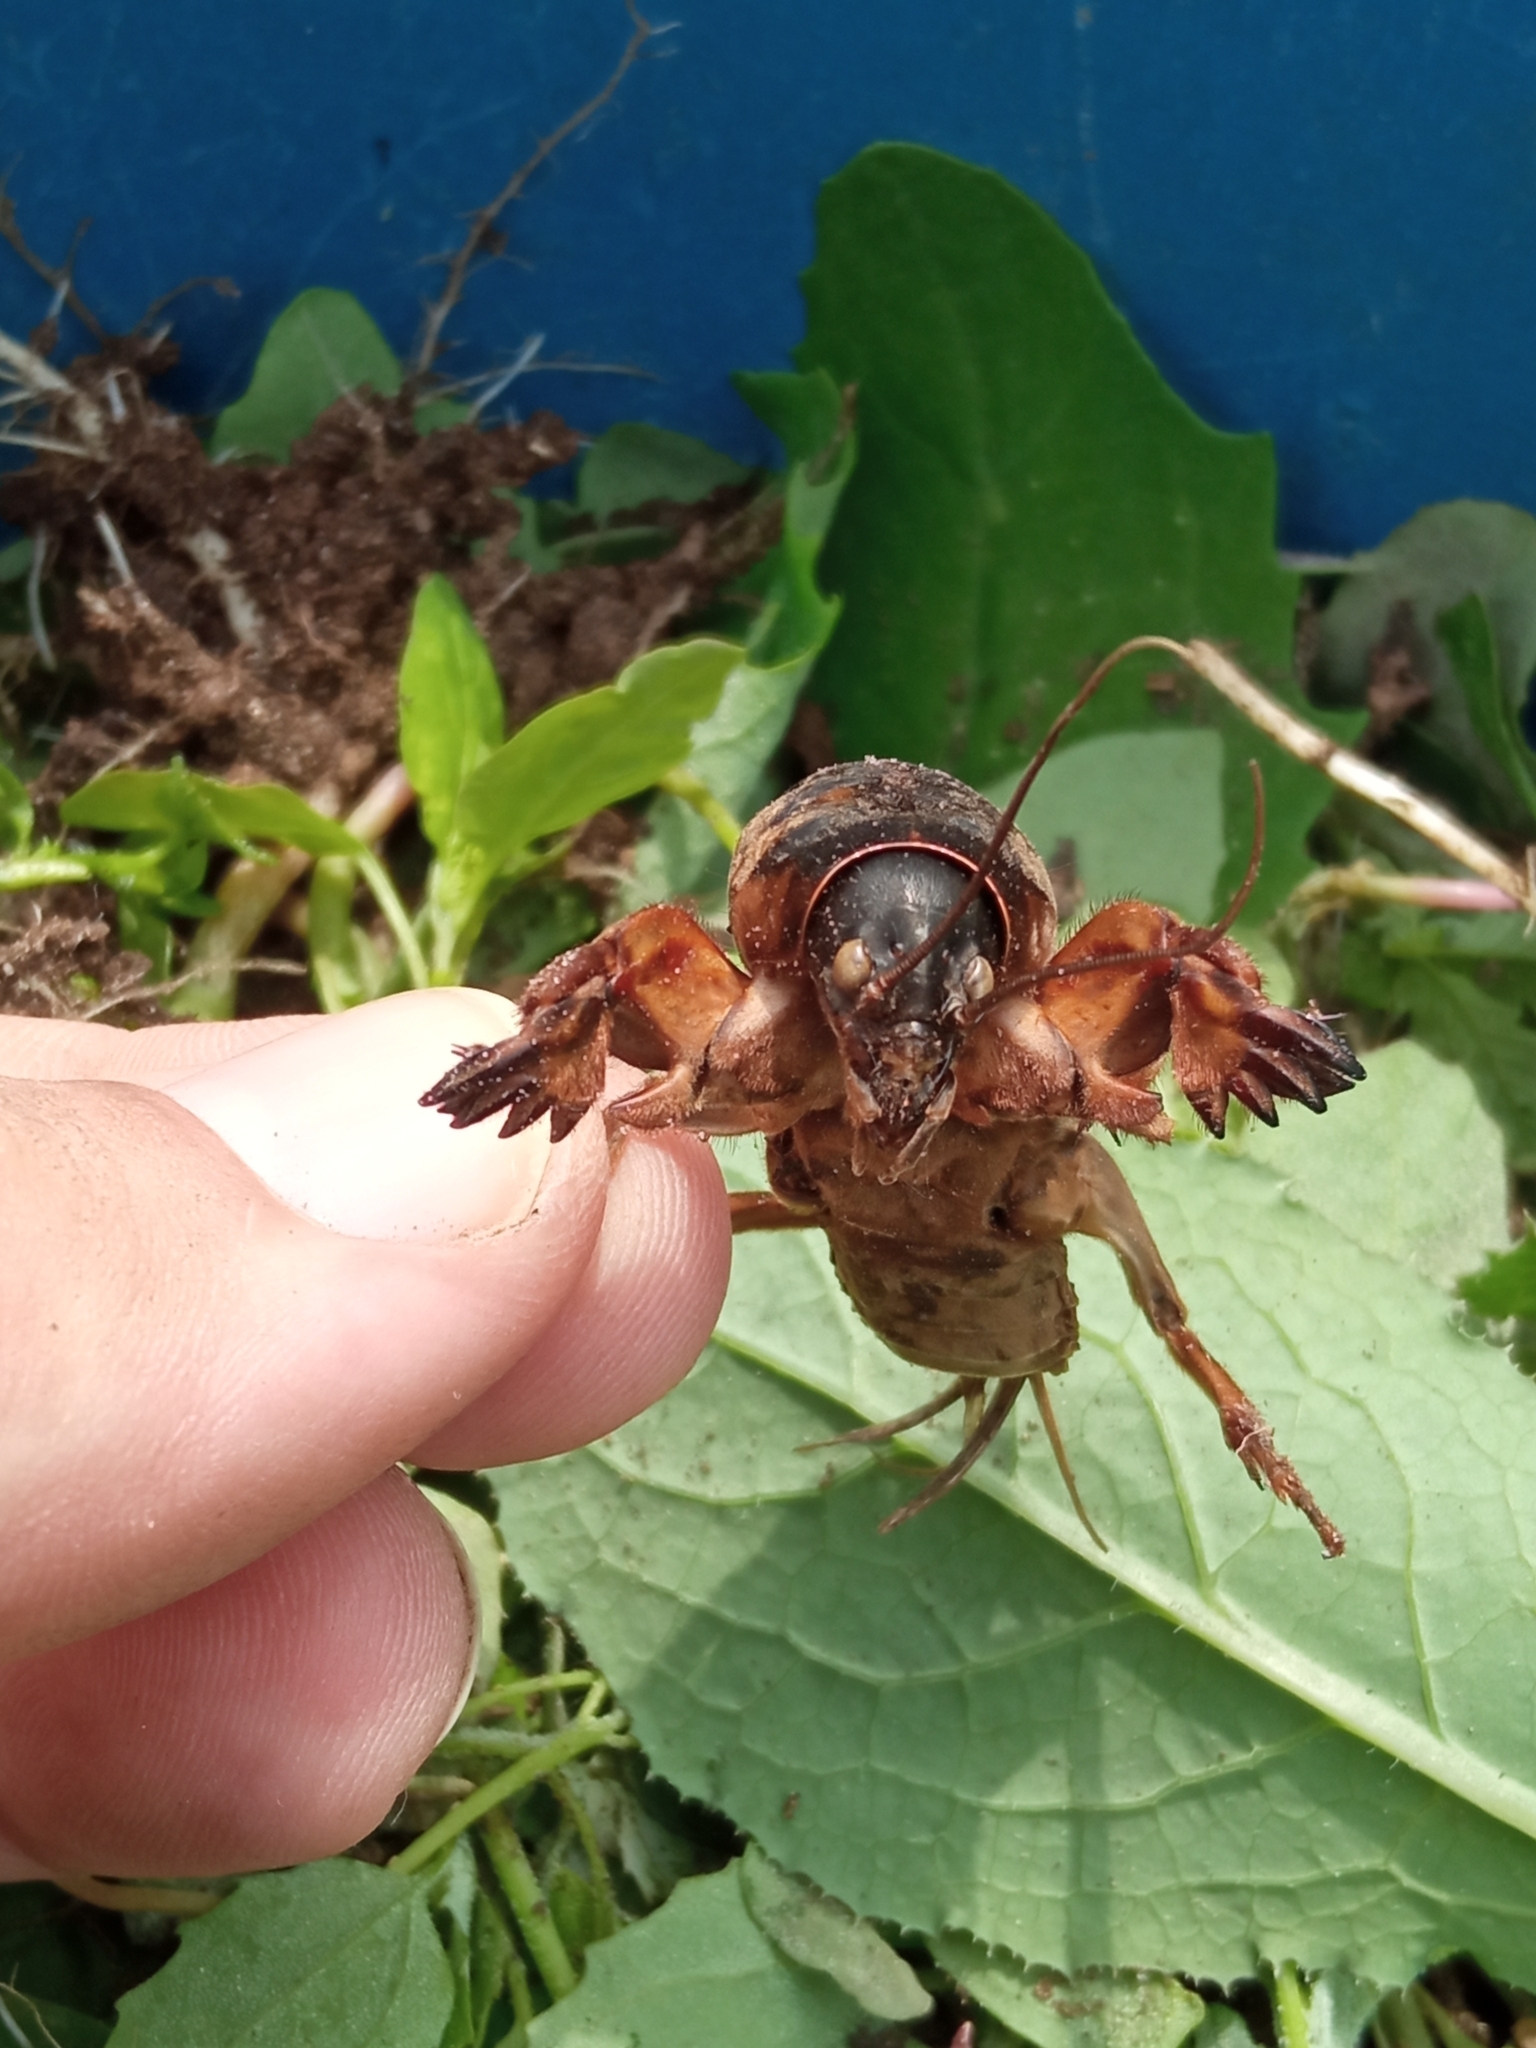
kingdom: Animalia
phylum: Arthropoda
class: Insecta
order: Orthoptera
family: Gryllotalpidae
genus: Gryllotalpa
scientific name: Gryllotalpa gryllotalpa
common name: European mole cricket
